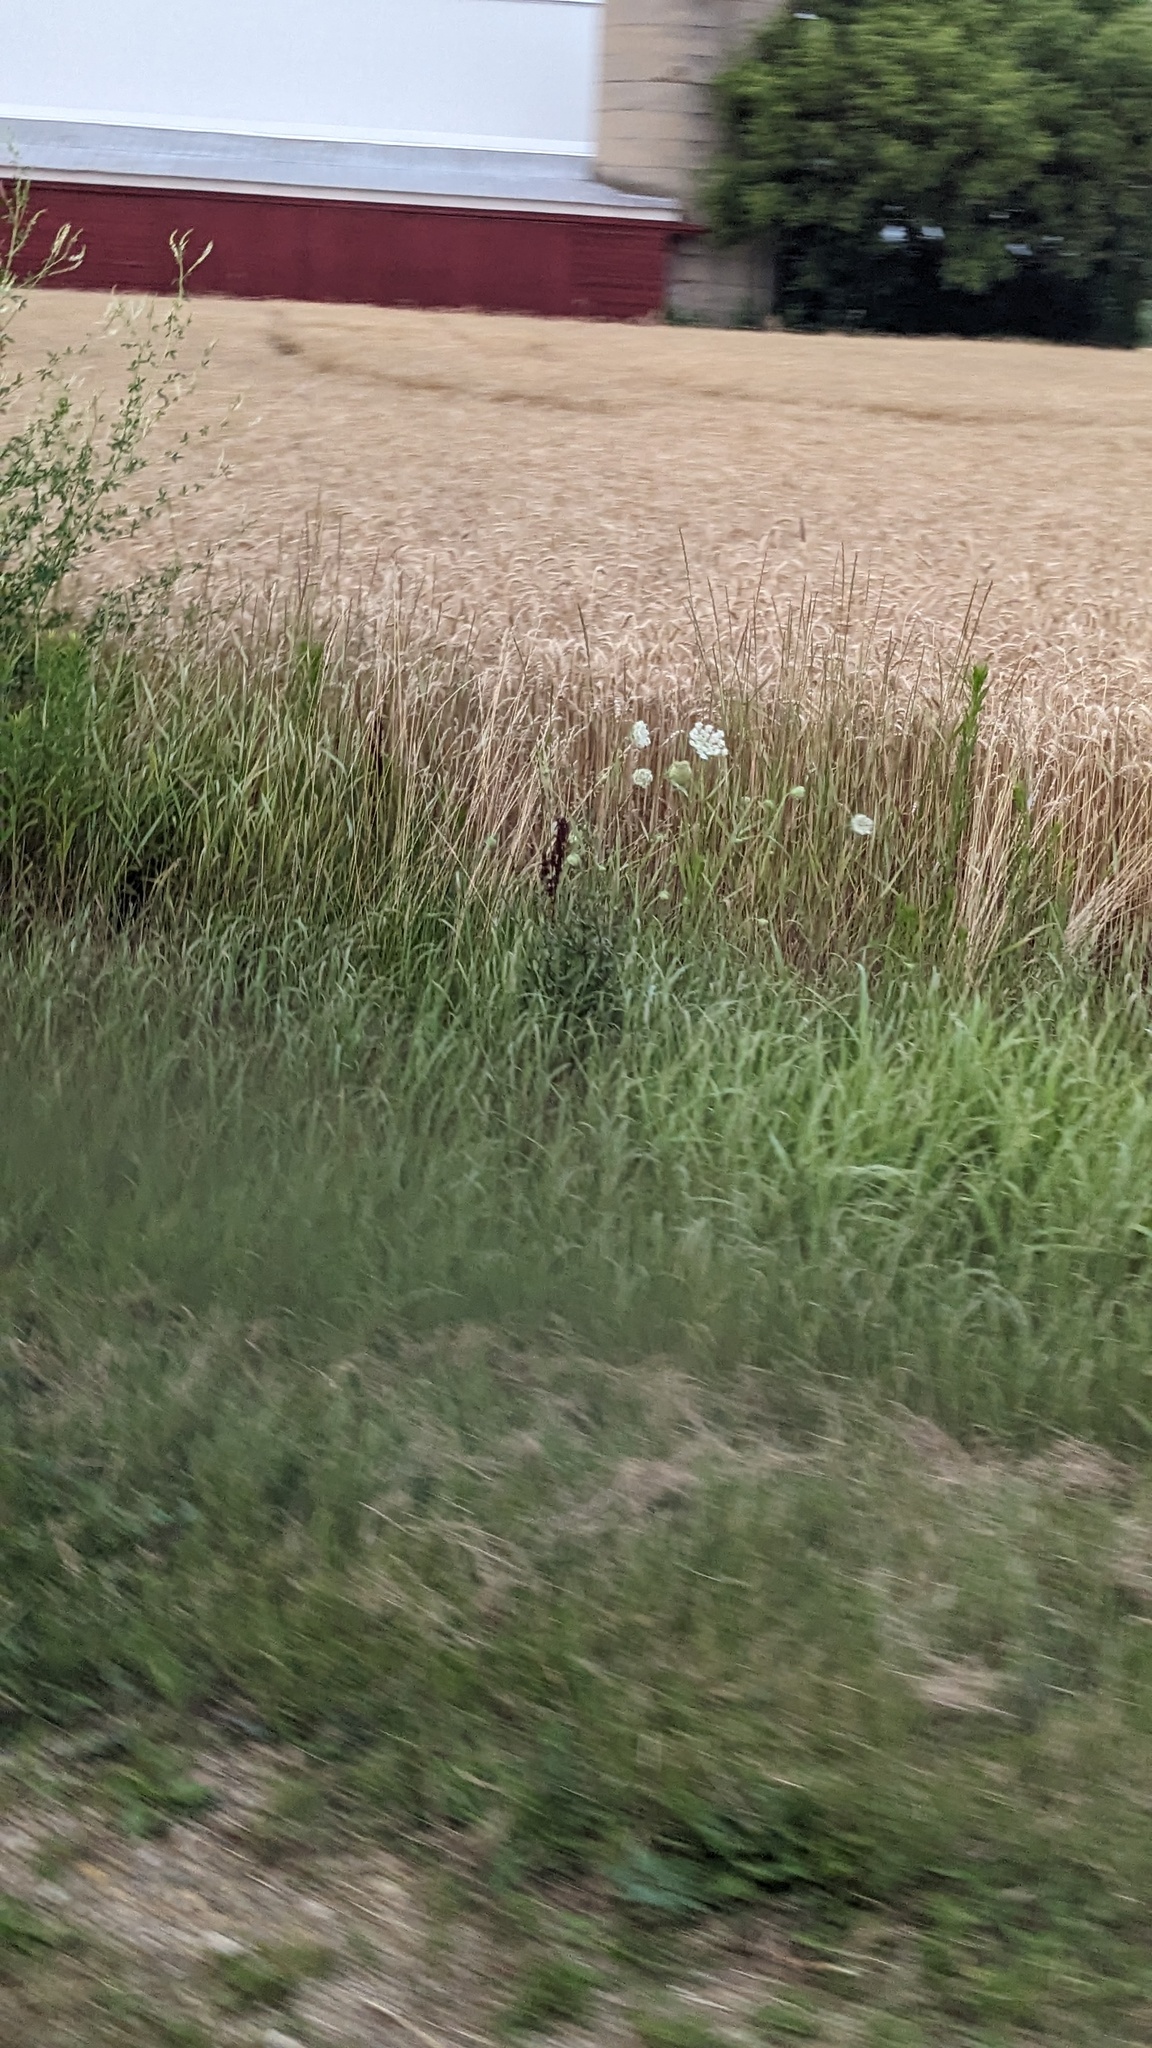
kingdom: Plantae
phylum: Tracheophyta
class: Magnoliopsida
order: Apiales
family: Apiaceae
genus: Daucus
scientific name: Daucus carota
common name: Wild carrot
